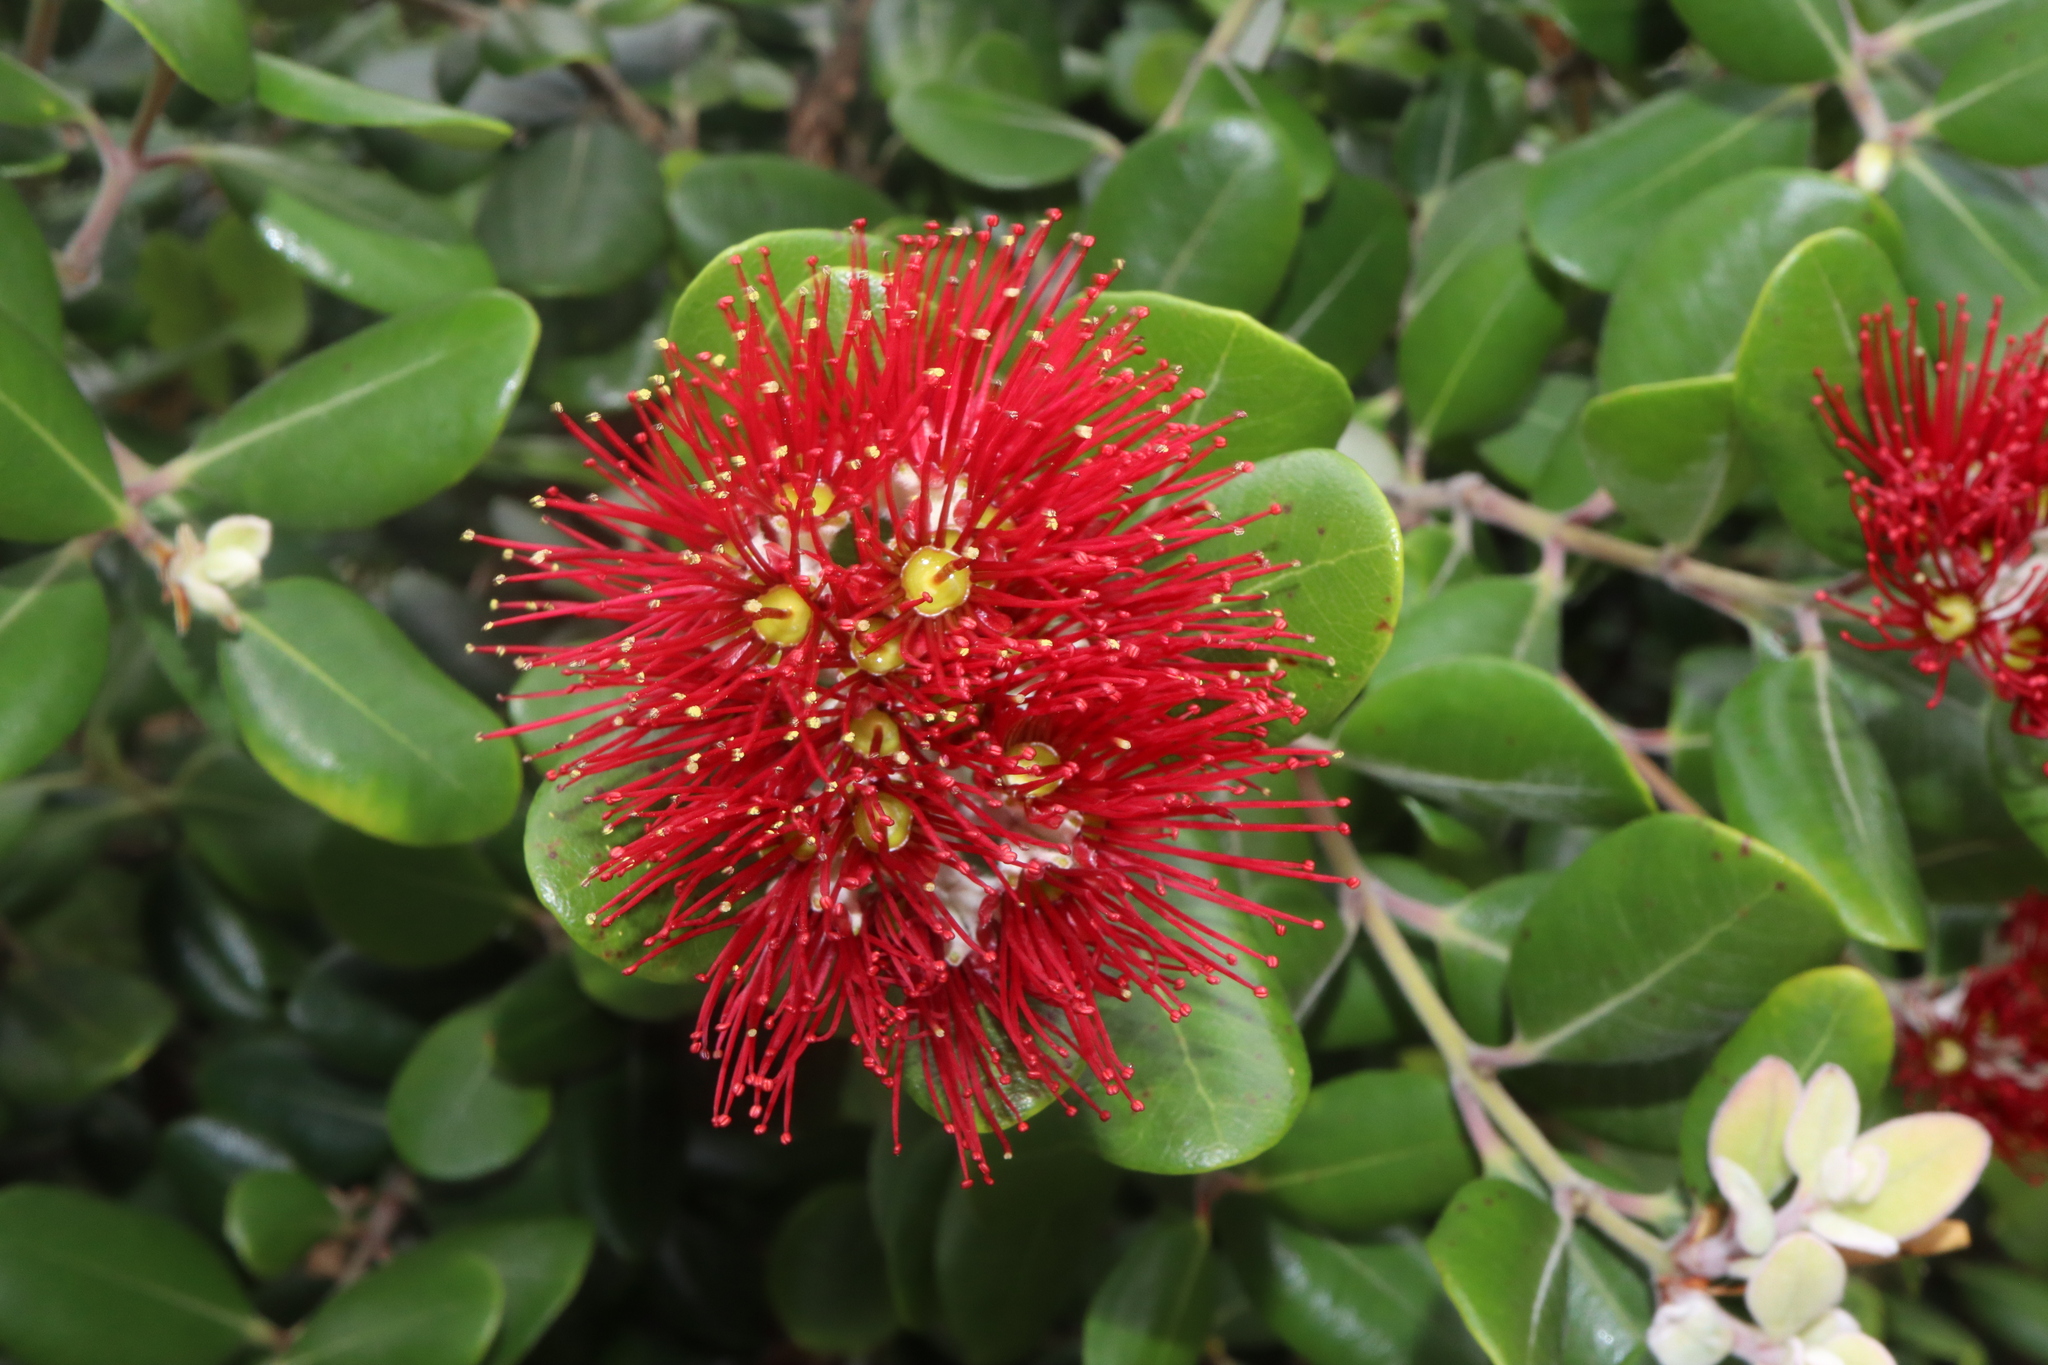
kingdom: Plantae
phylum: Tracheophyta
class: Magnoliopsida
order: Myrtales
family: Myrtaceae
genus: Metrosideros
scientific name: Metrosideros kermadecensis
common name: Pohutukawa
